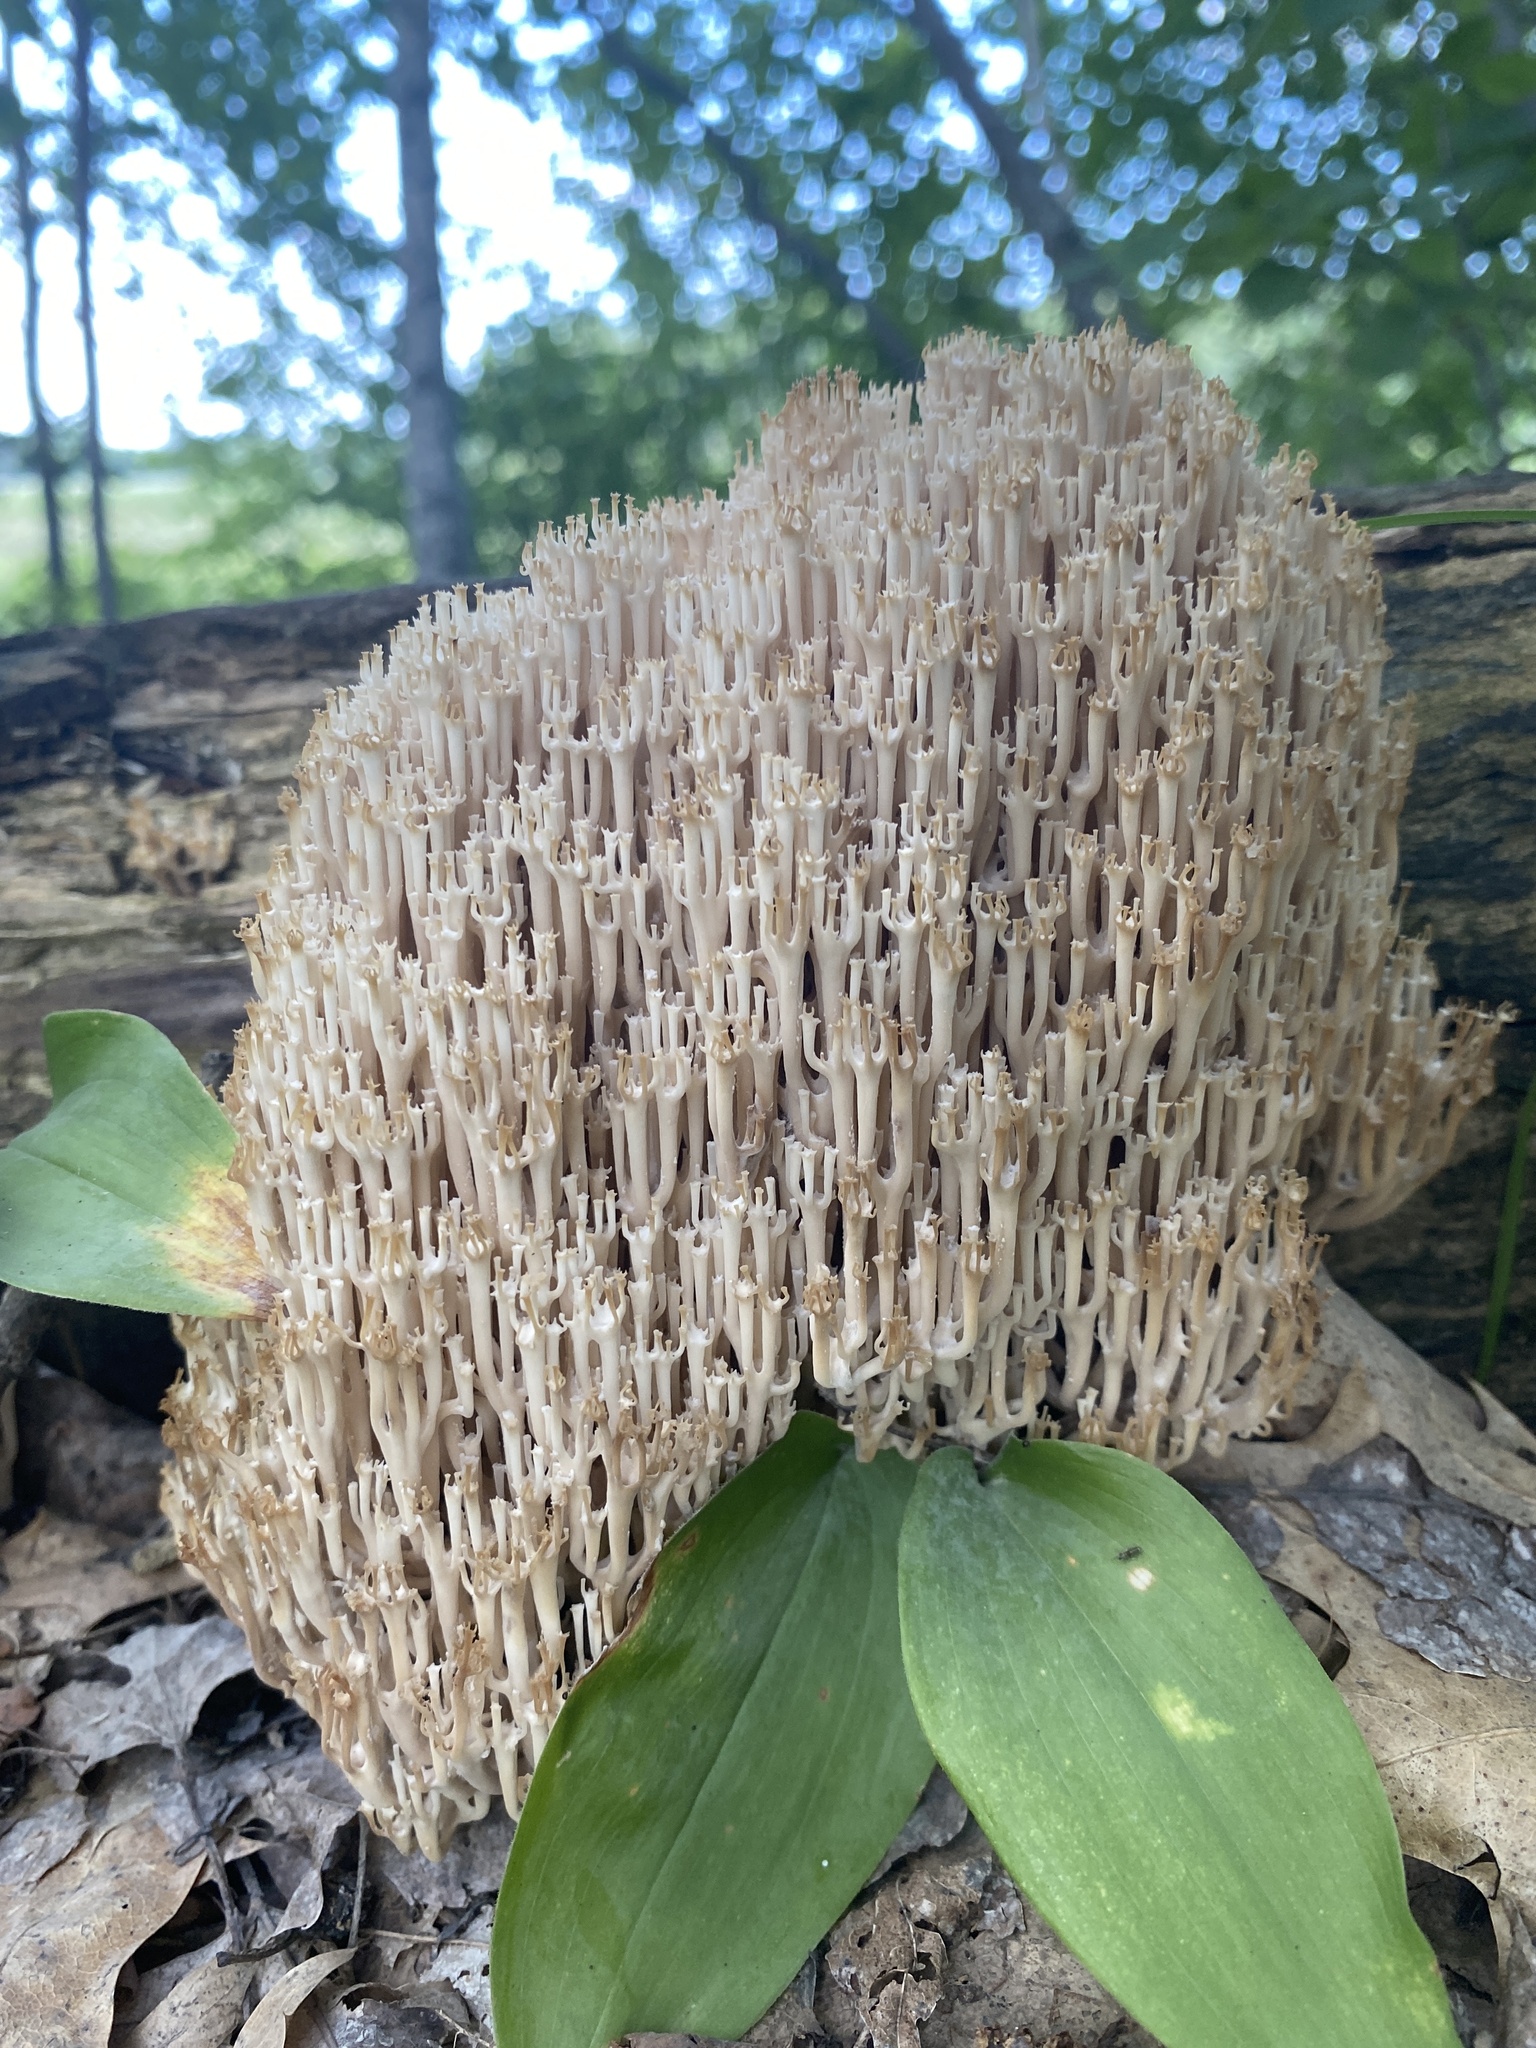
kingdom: Fungi
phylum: Basidiomycota
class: Agaricomycetes
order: Russulales
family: Auriscalpiaceae
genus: Artomyces
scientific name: Artomyces pyxidatus
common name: Crown-tipped coral fungus
